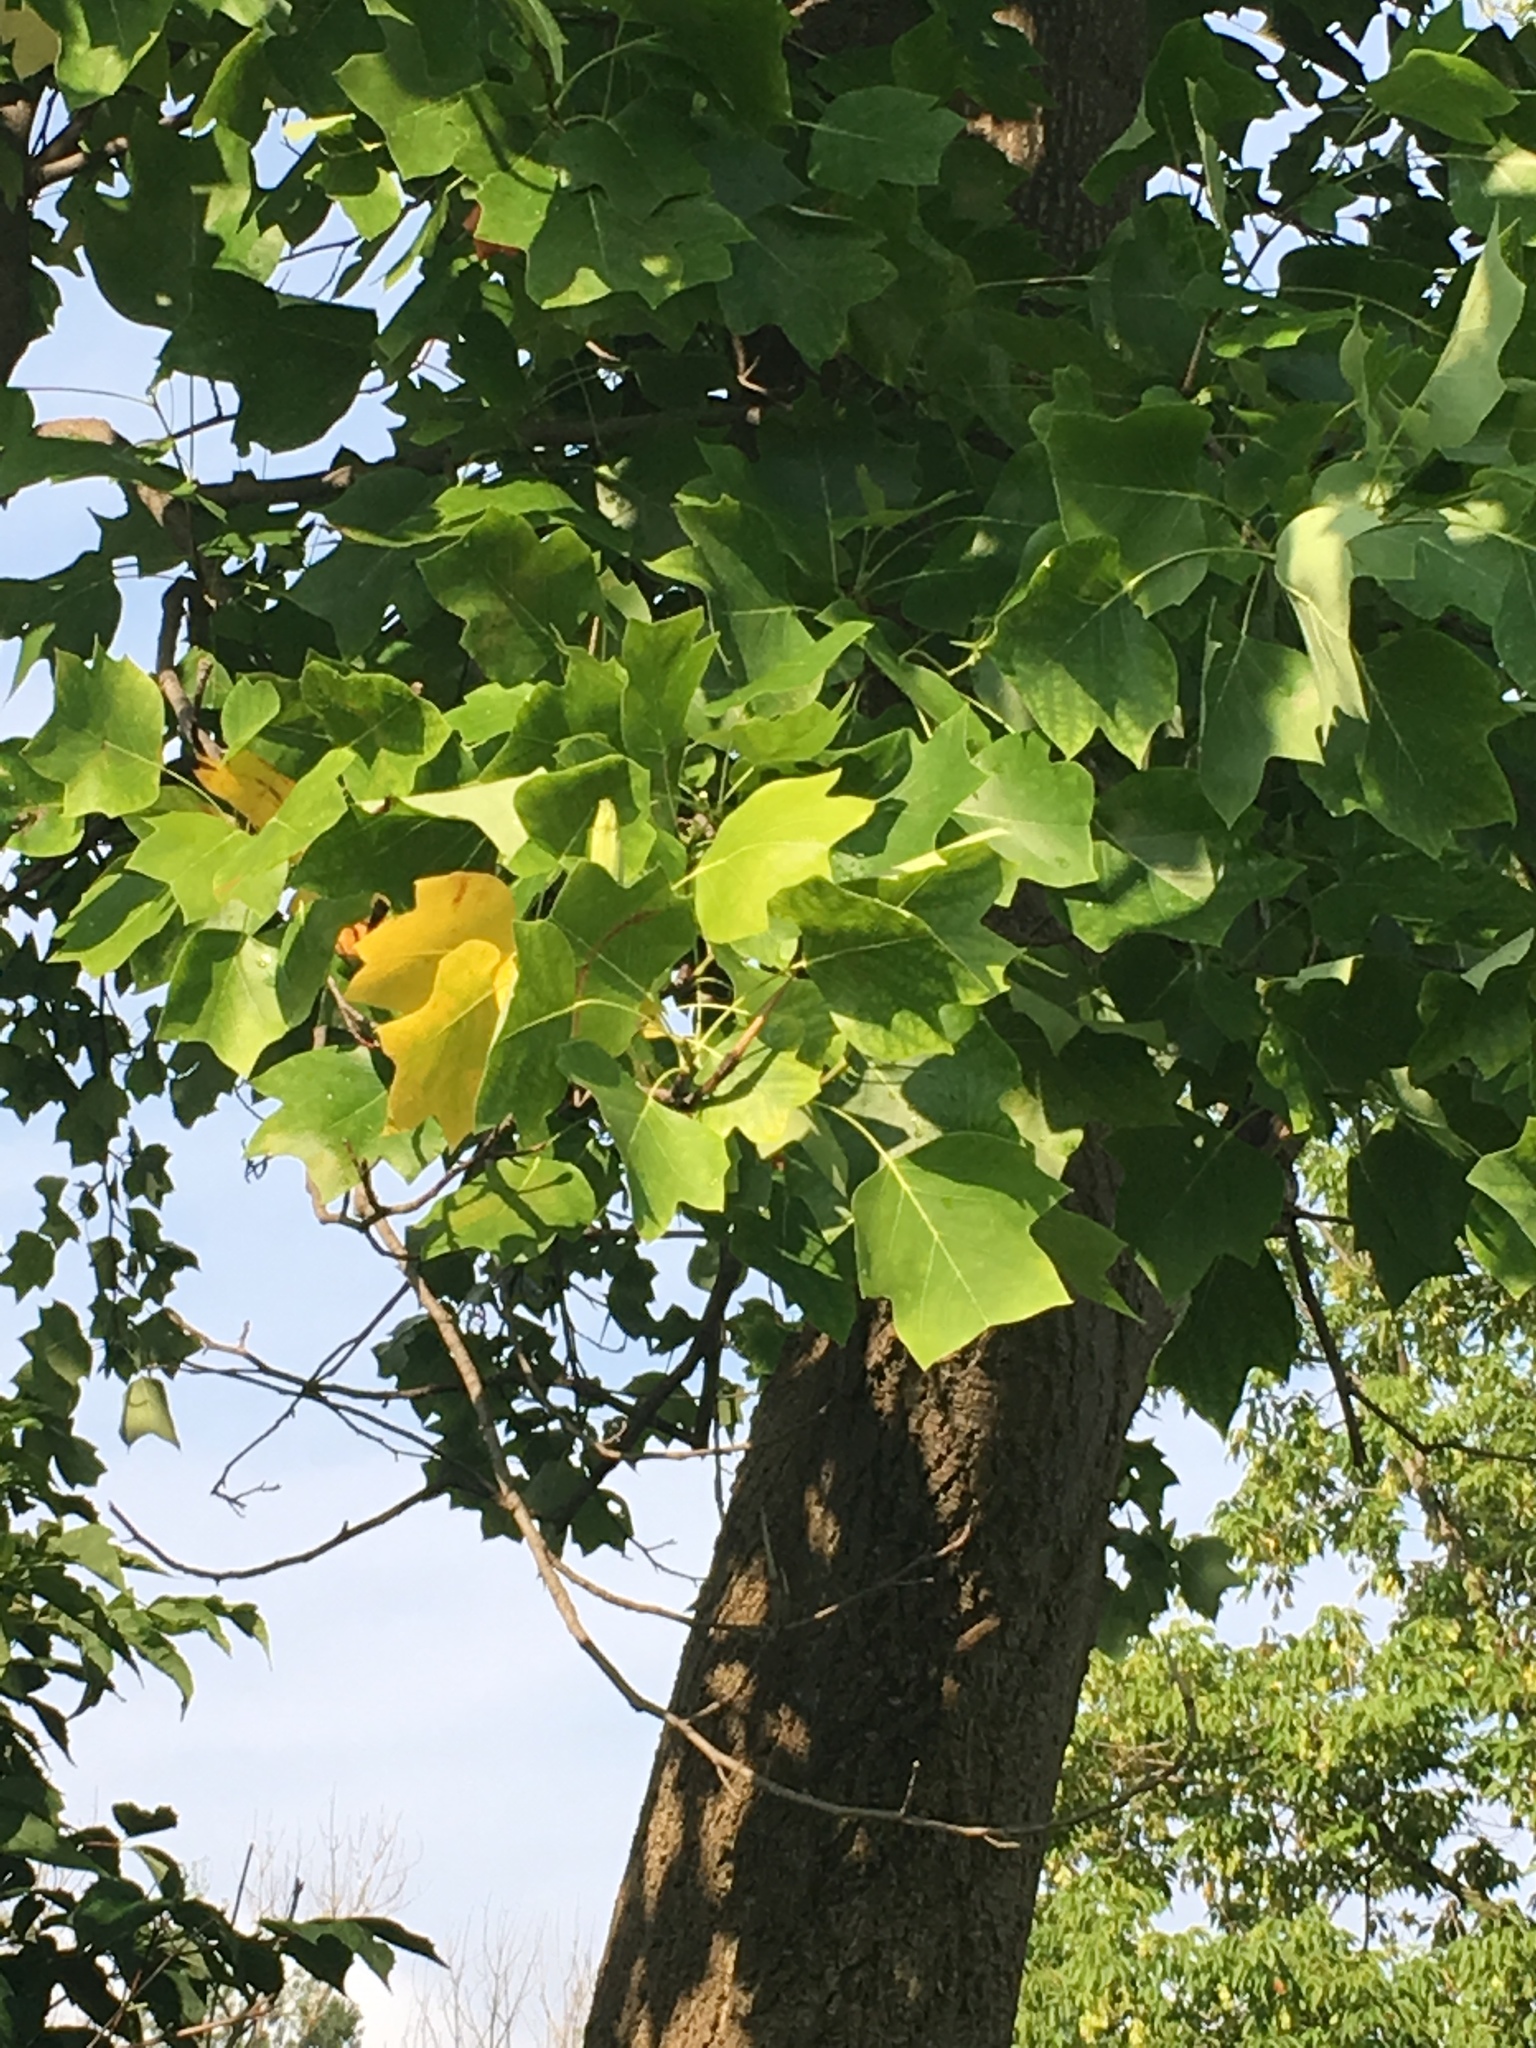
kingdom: Plantae
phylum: Tracheophyta
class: Magnoliopsida
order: Magnoliales
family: Magnoliaceae
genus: Liriodendron
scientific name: Liriodendron tulipifera
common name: Tulip tree
